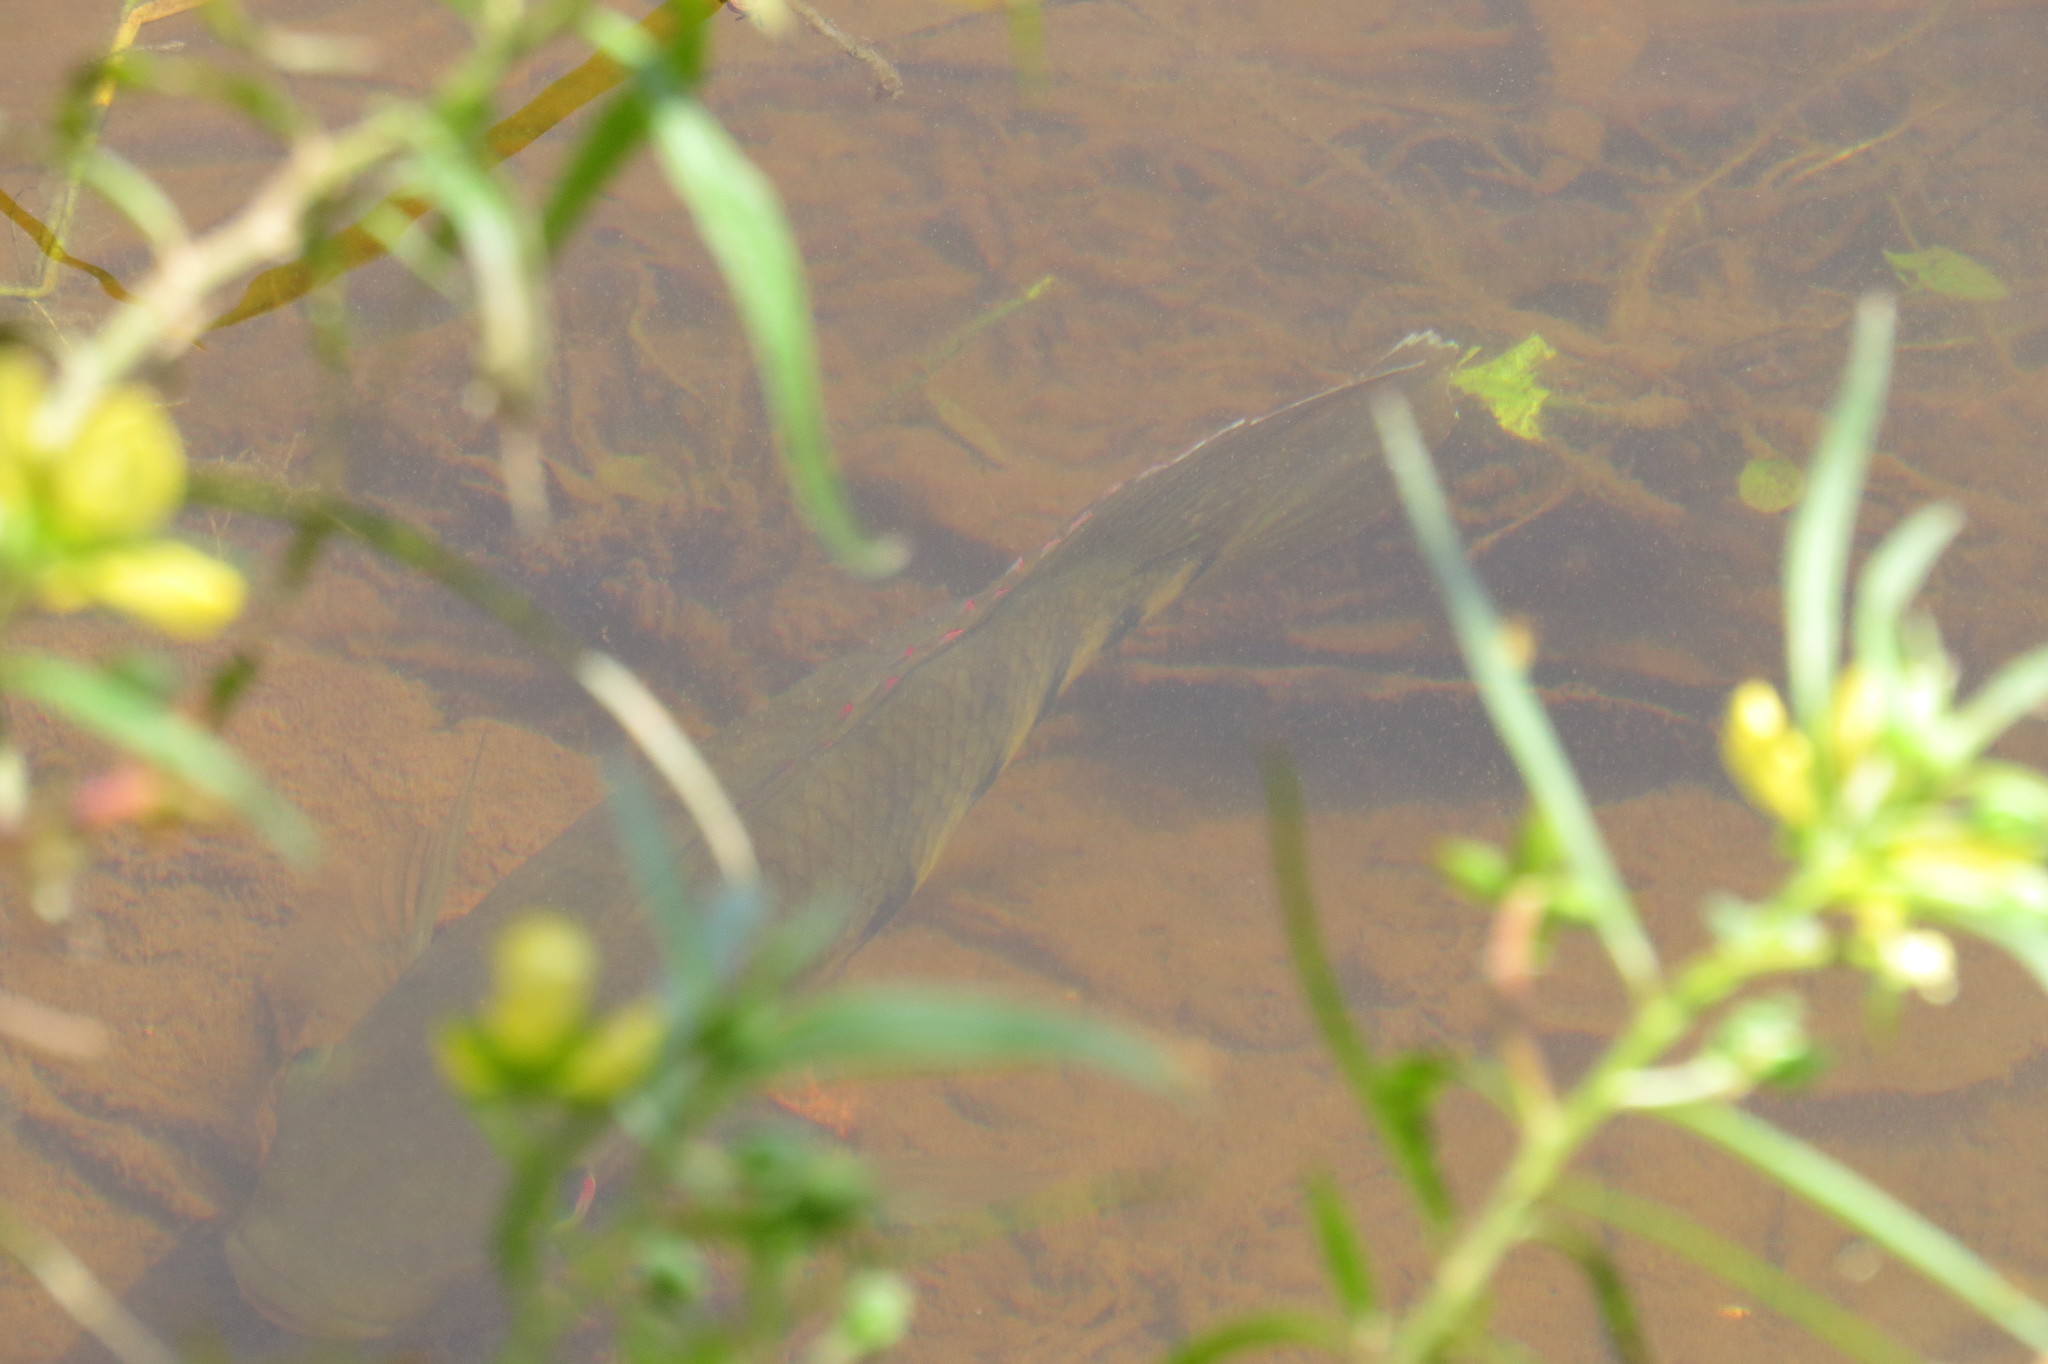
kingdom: Animalia
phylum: Chordata
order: Perciformes
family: Cichlidae
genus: Pelmatolapia
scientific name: Pelmatolapia mariae
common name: Spotted tilapia
